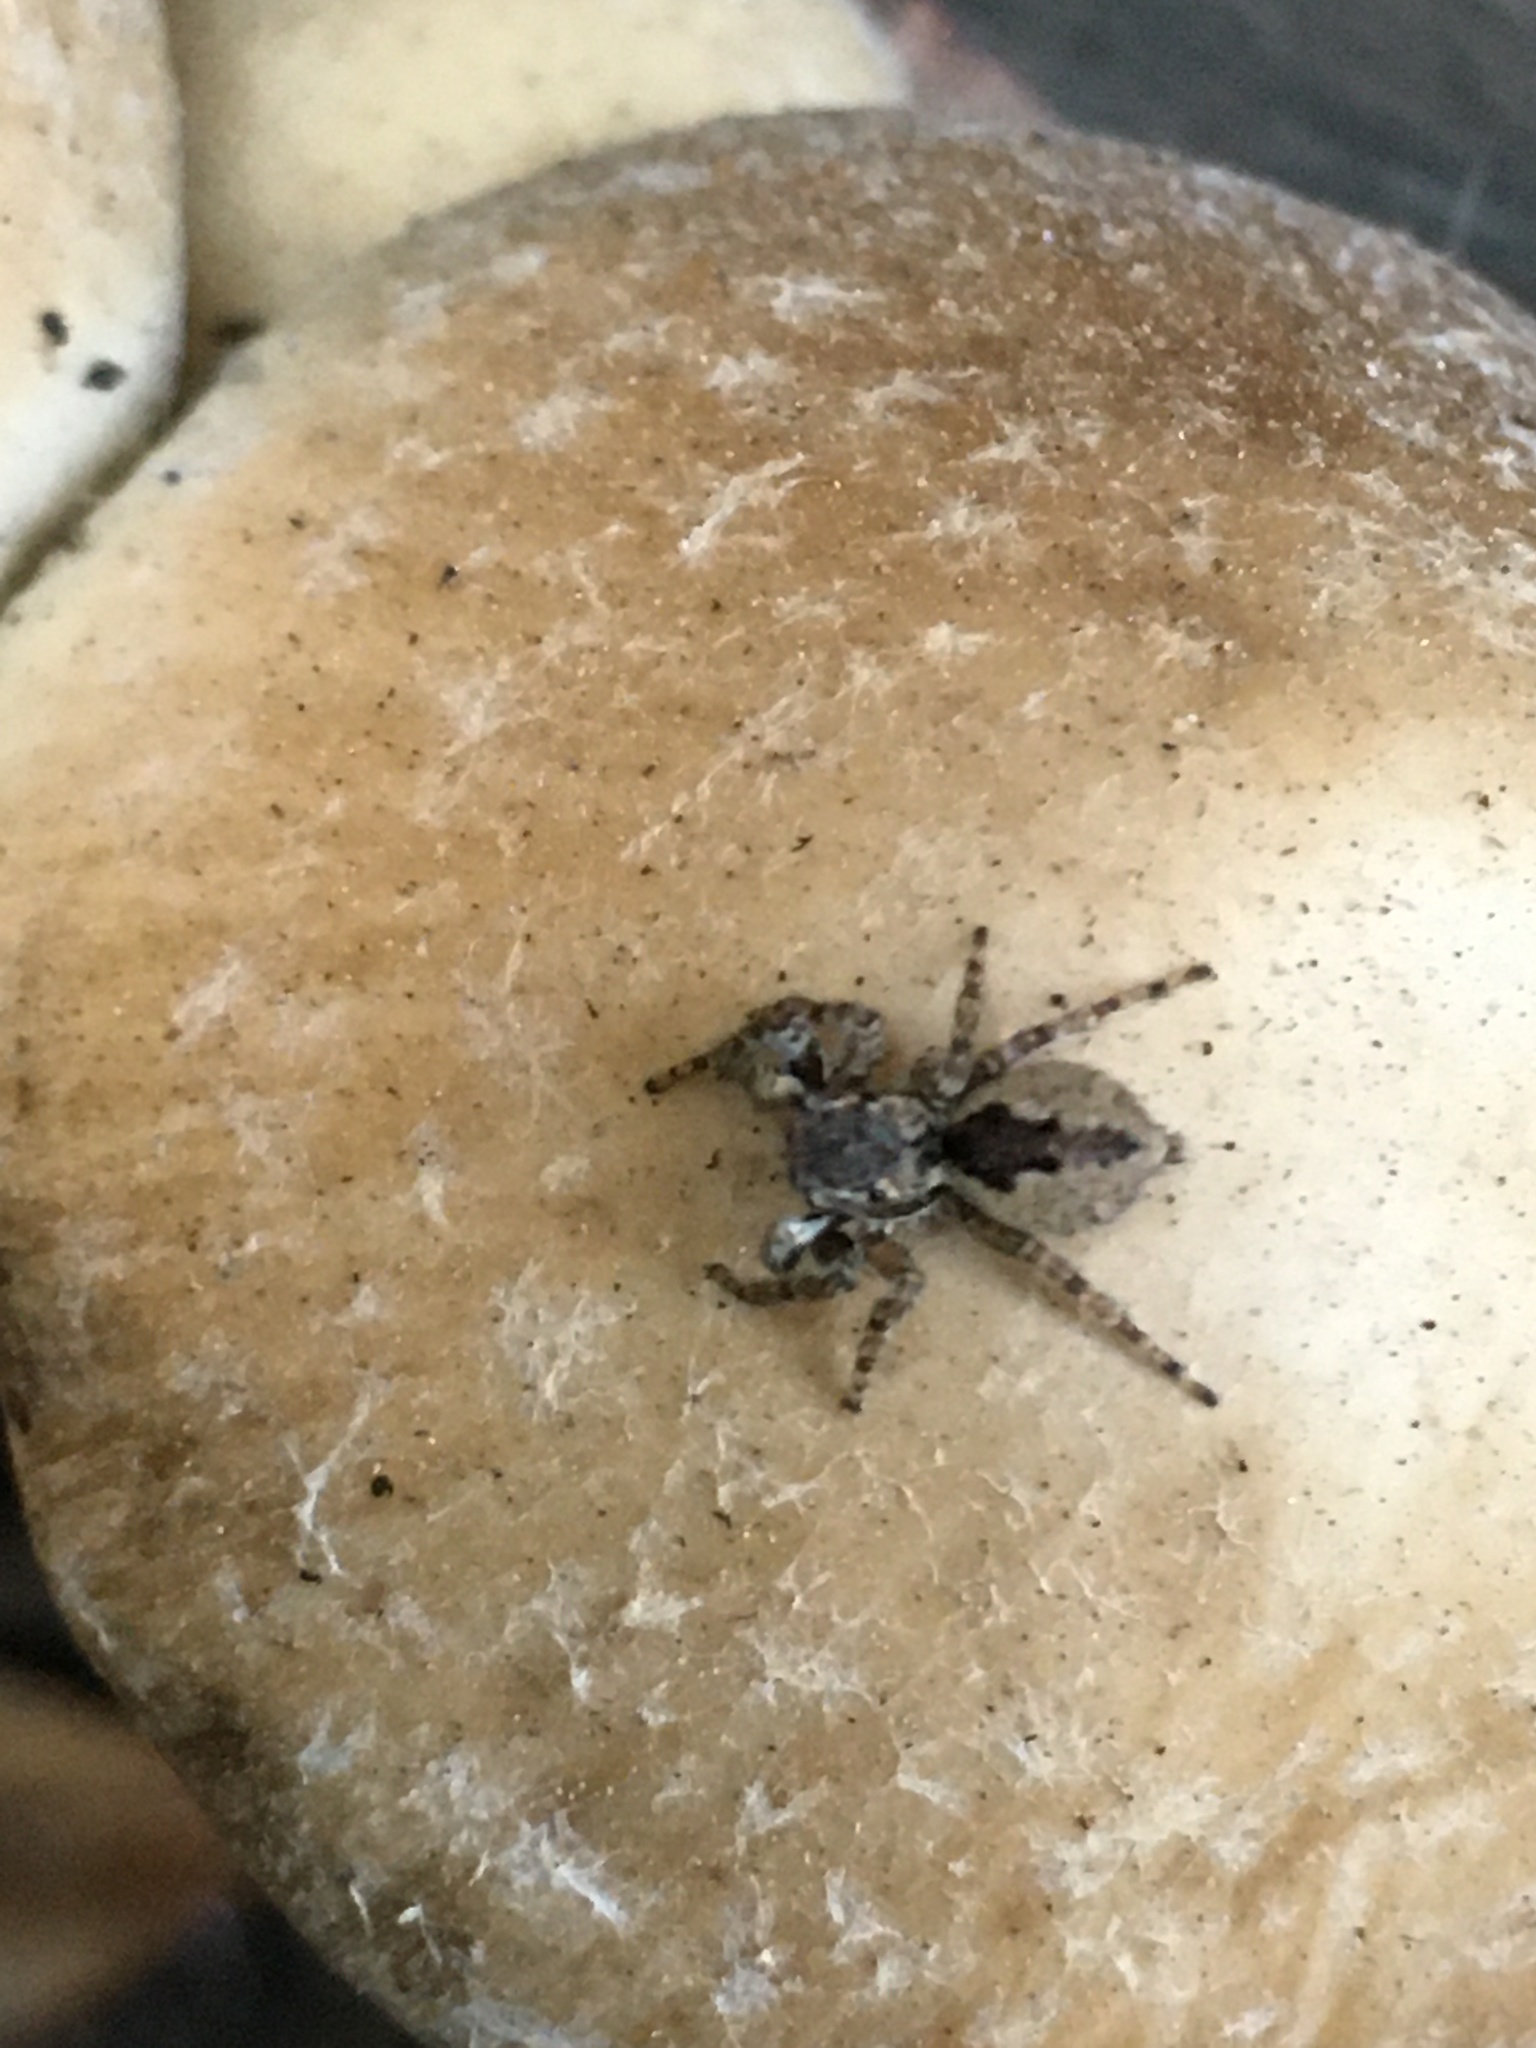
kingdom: Animalia
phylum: Arthropoda
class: Arachnida
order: Araneae
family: Salticidae
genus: Mexigonus
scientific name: Mexigonus minutus
